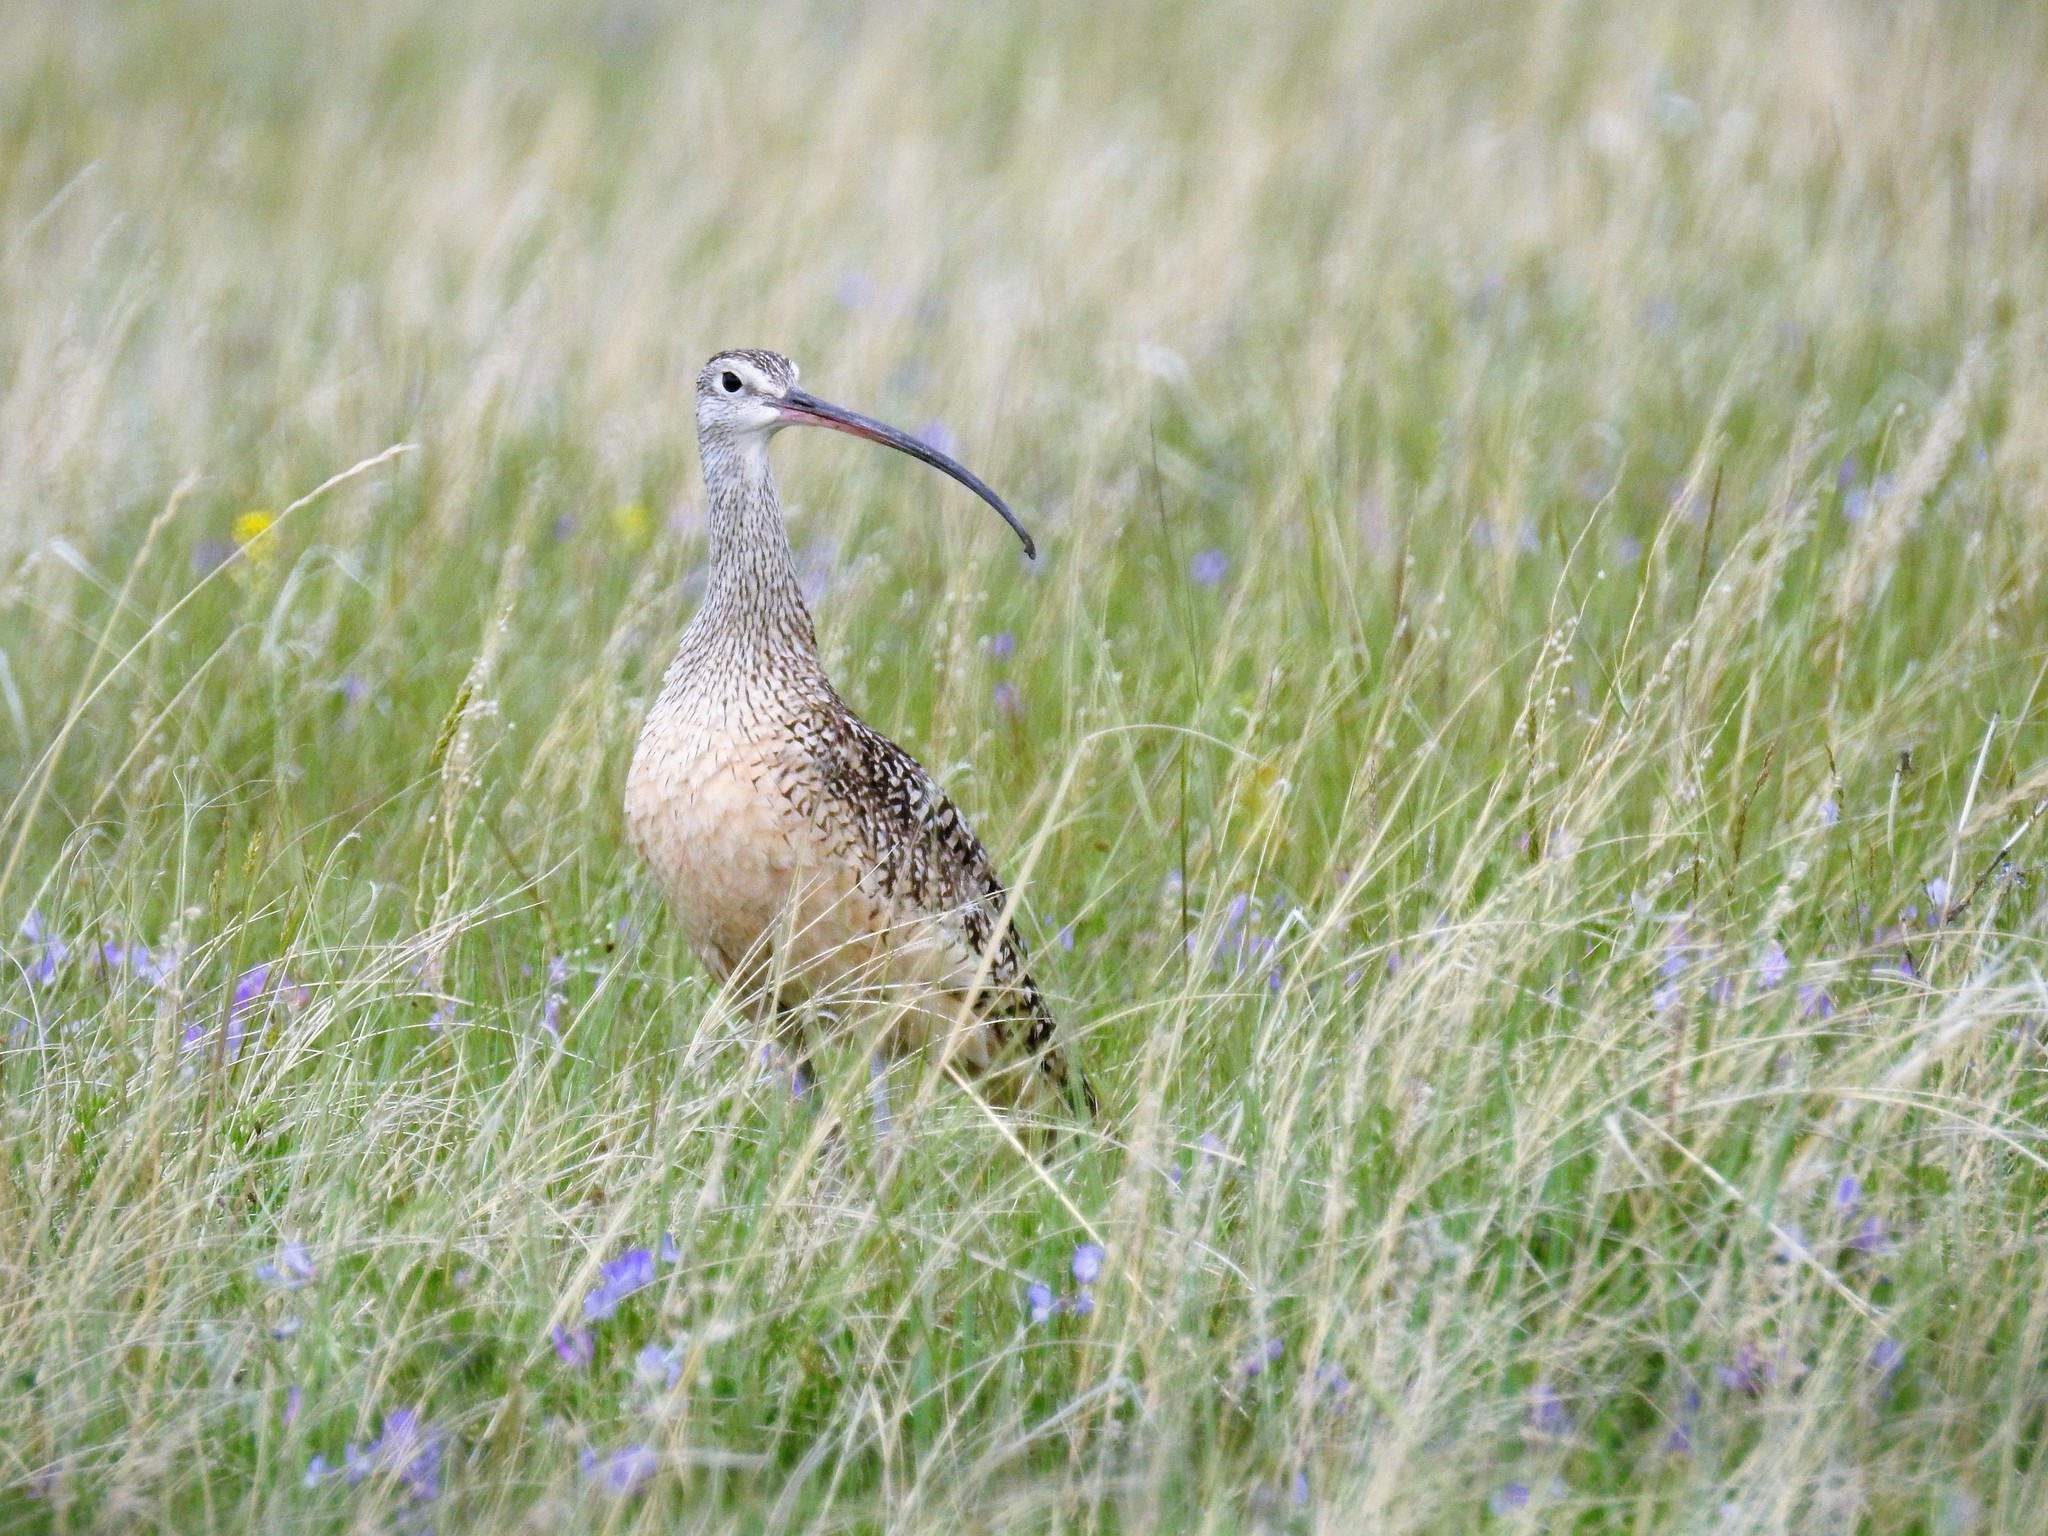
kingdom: Animalia
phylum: Chordata
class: Aves
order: Charadriiformes
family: Scolopacidae
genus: Numenius
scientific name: Numenius americanus
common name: Long-billed curlew
